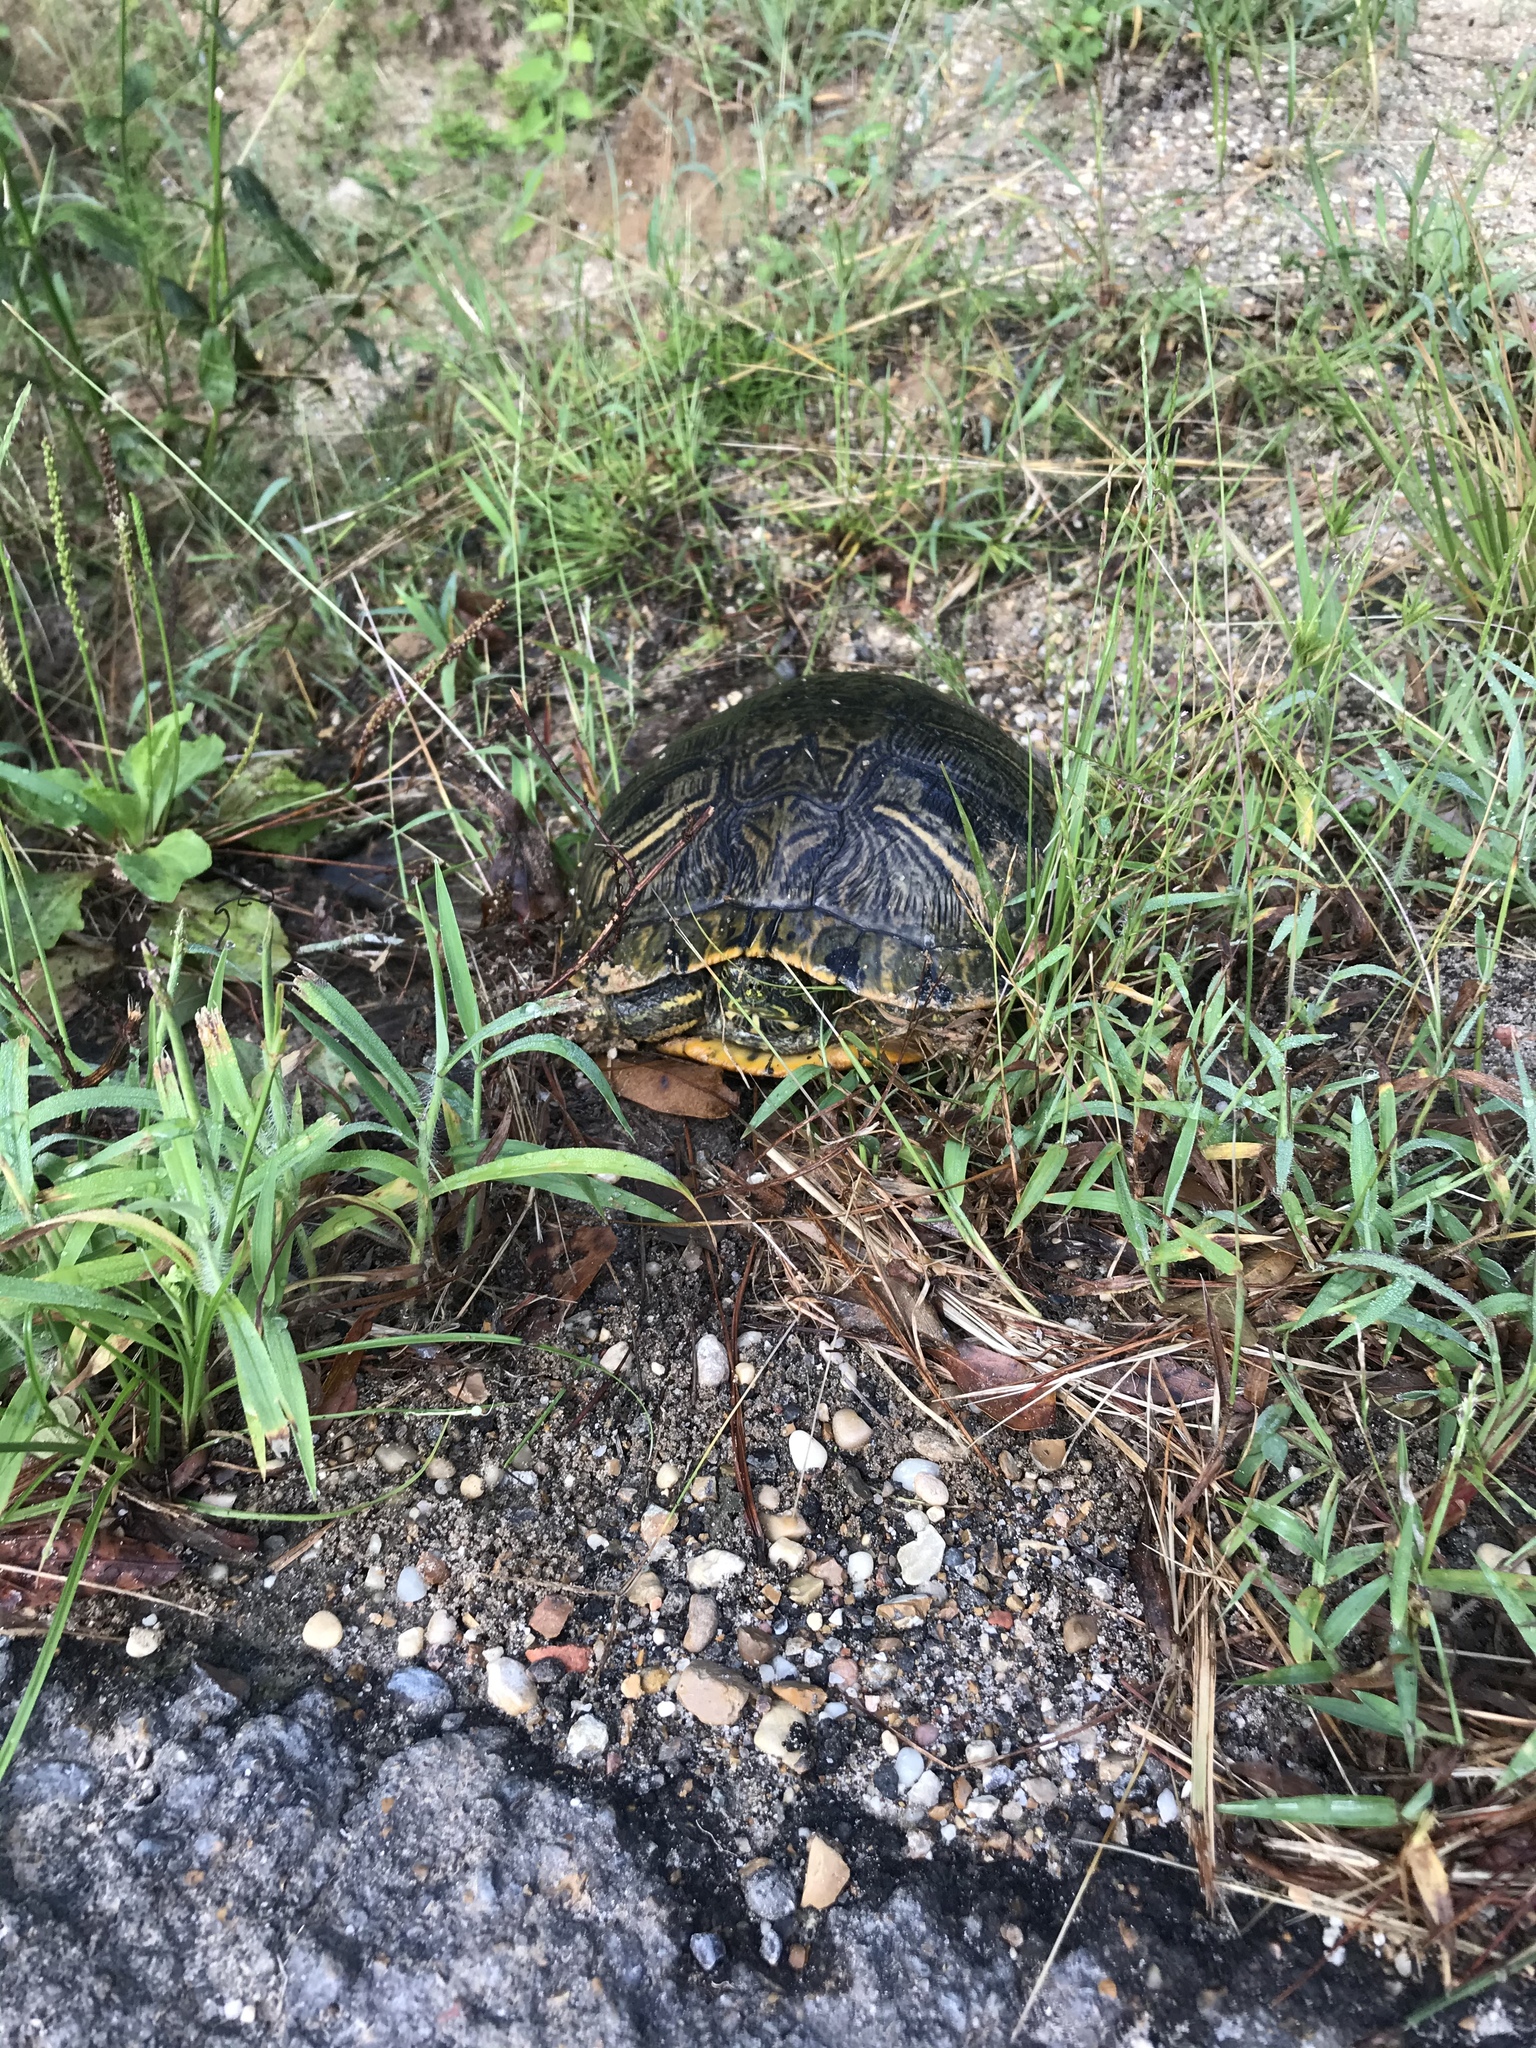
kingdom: Animalia
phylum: Chordata
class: Testudines
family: Emydidae
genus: Trachemys
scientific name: Trachemys scripta
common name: Slider
